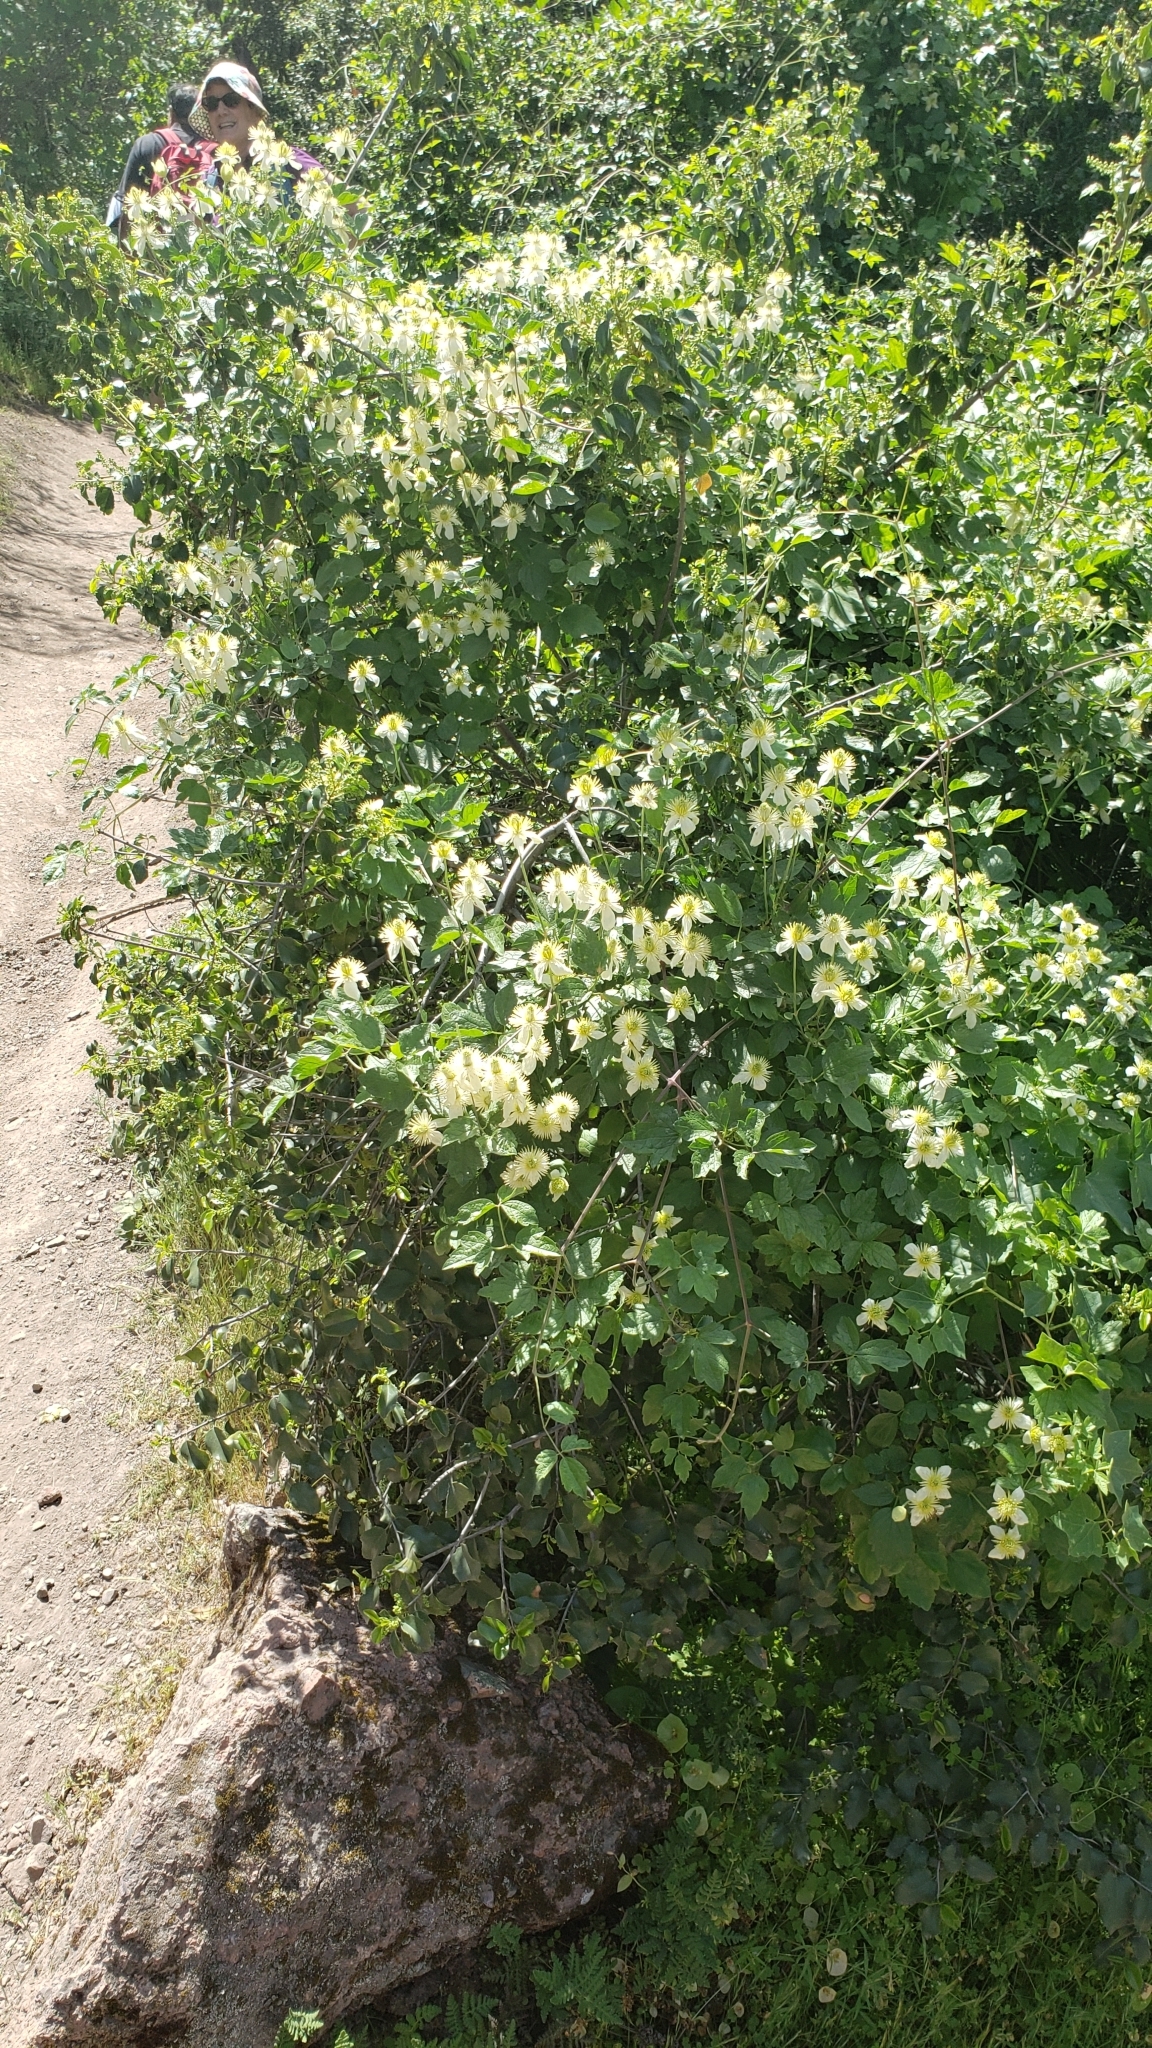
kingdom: Plantae
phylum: Tracheophyta
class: Magnoliopsida
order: Ranunculales
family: Ranunculaceae
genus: Clematis
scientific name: Clematis lasiantha
